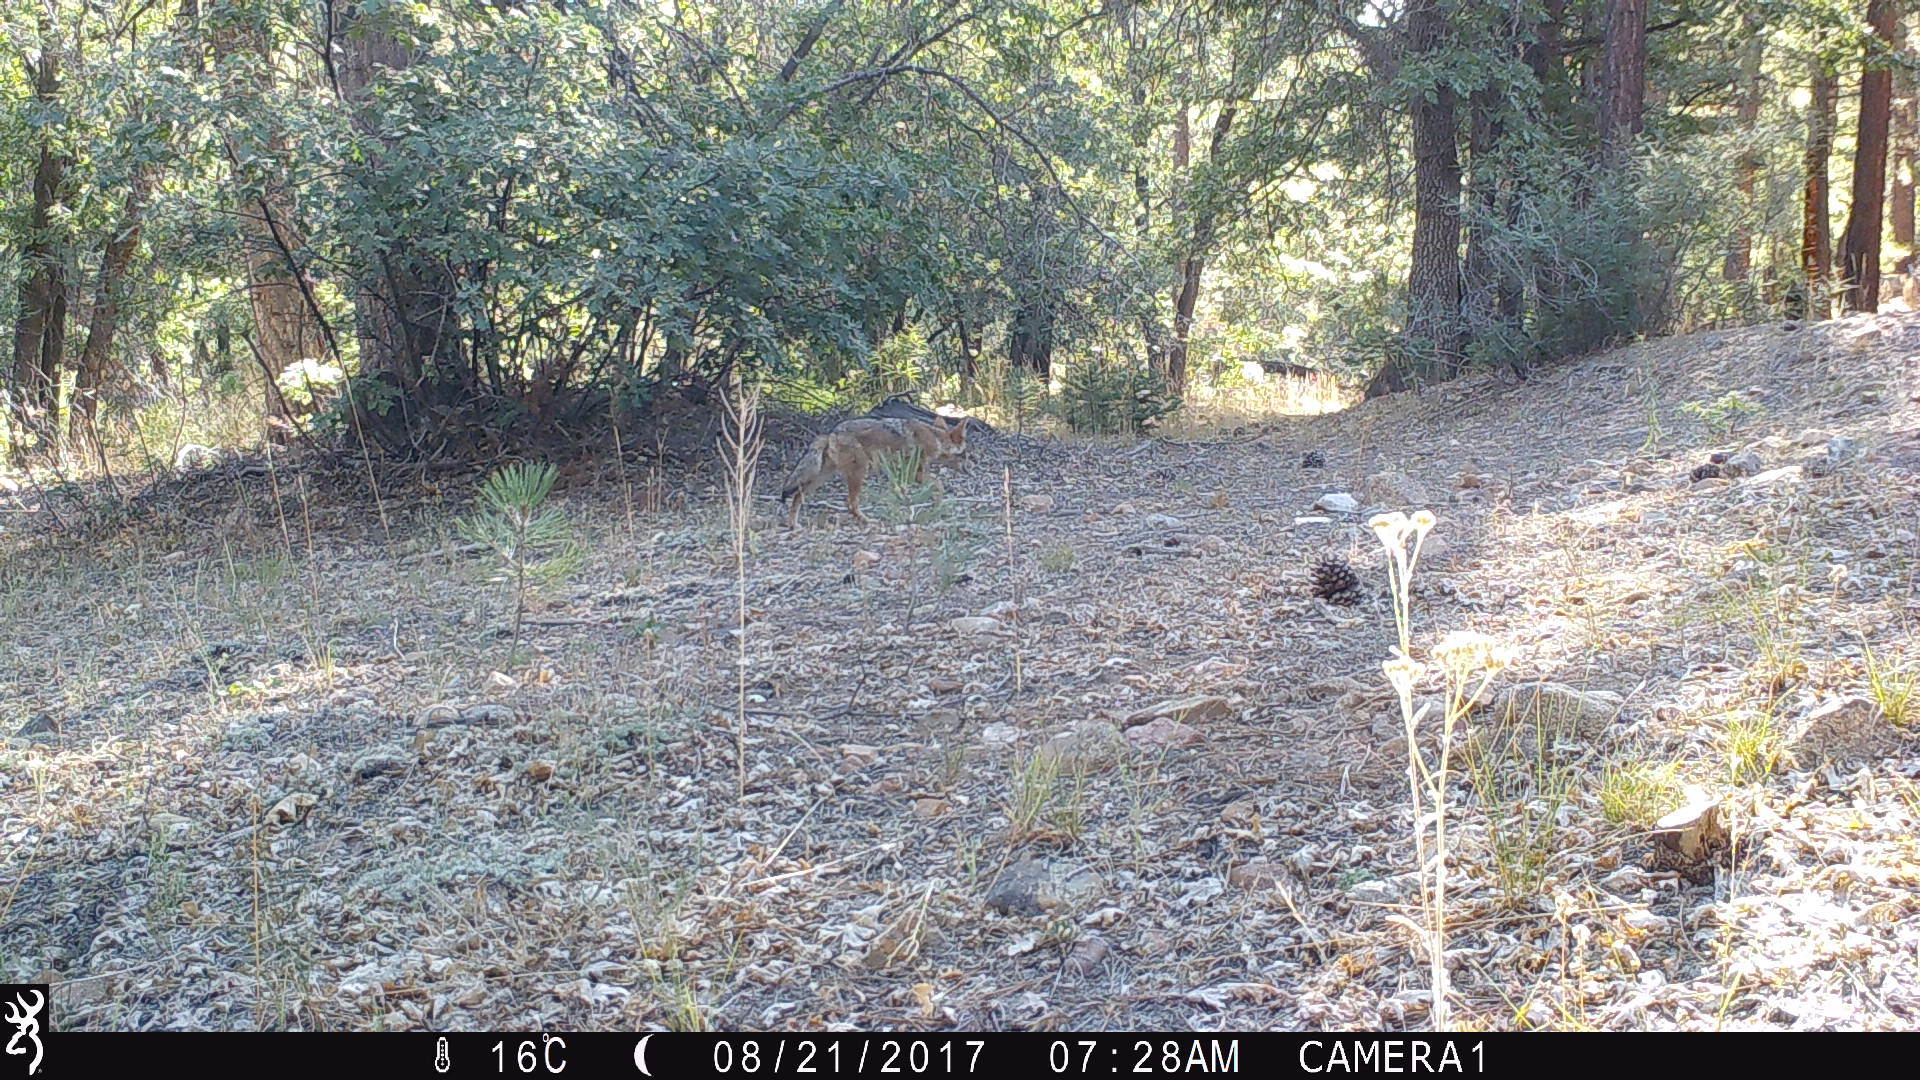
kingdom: Animalia
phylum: Chordata
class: Mammalia
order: Carnivora
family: Canidae
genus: Canis
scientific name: Canis latrans
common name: Coyote
